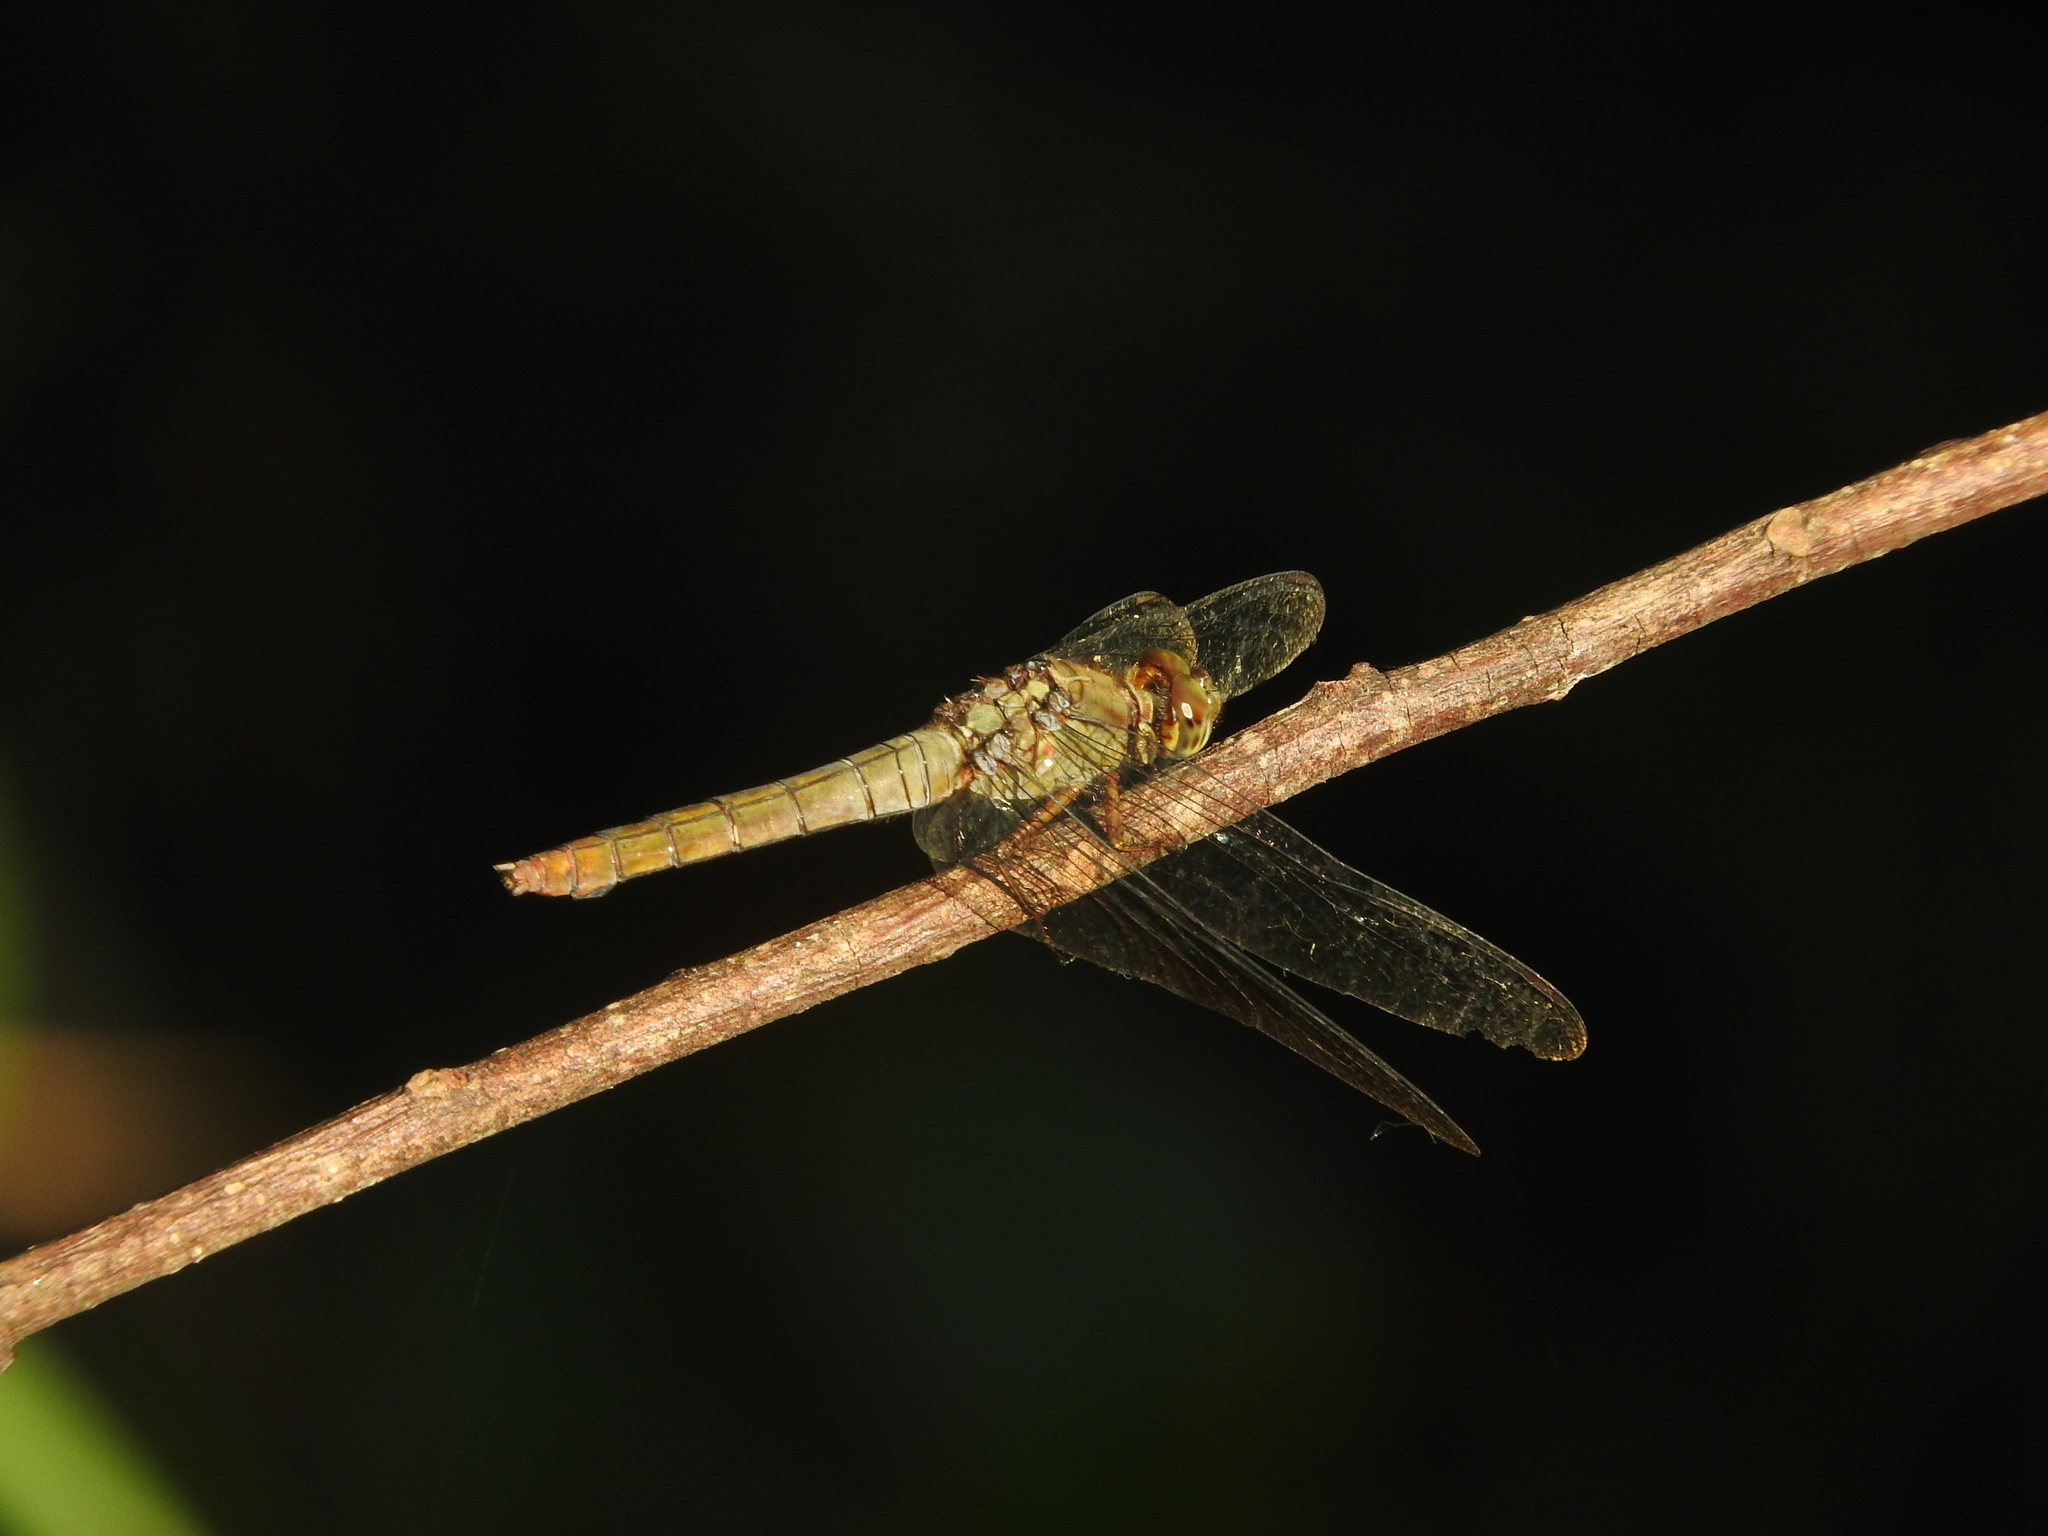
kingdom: Animalia
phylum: Arthropoda
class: Insecta
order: Odonata
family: Libellulidae
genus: Orthetrum
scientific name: Orthetrum testaceum
